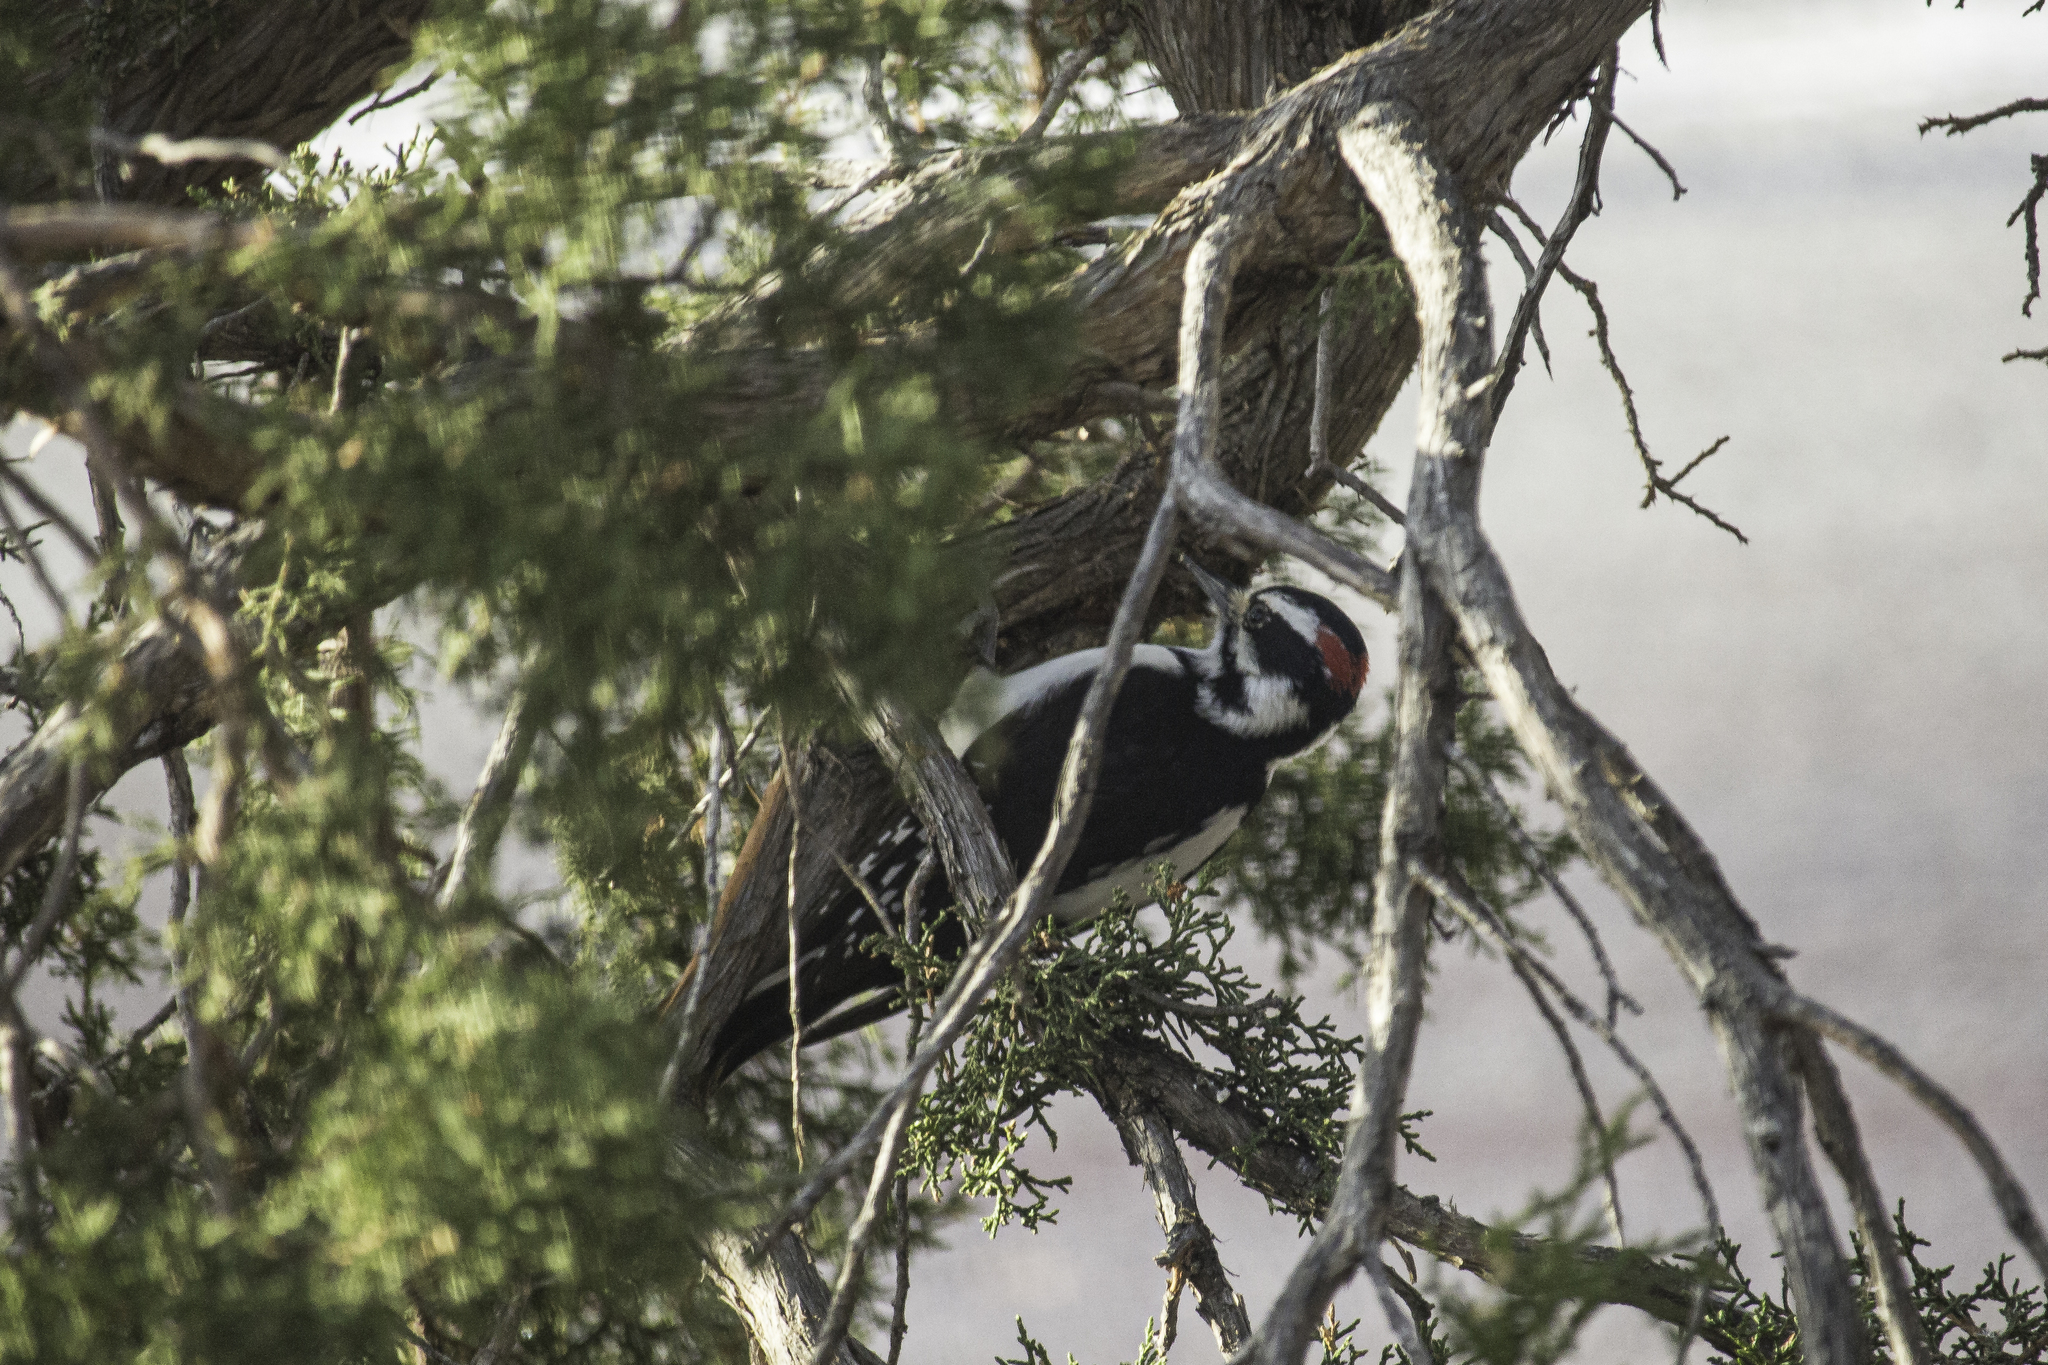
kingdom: Animalia
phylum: Chordata
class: Aves
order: Piciformes
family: Picidae
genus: Leuconotopicus
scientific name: Leuconotopicus villosus
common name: Hairy woodpecker
